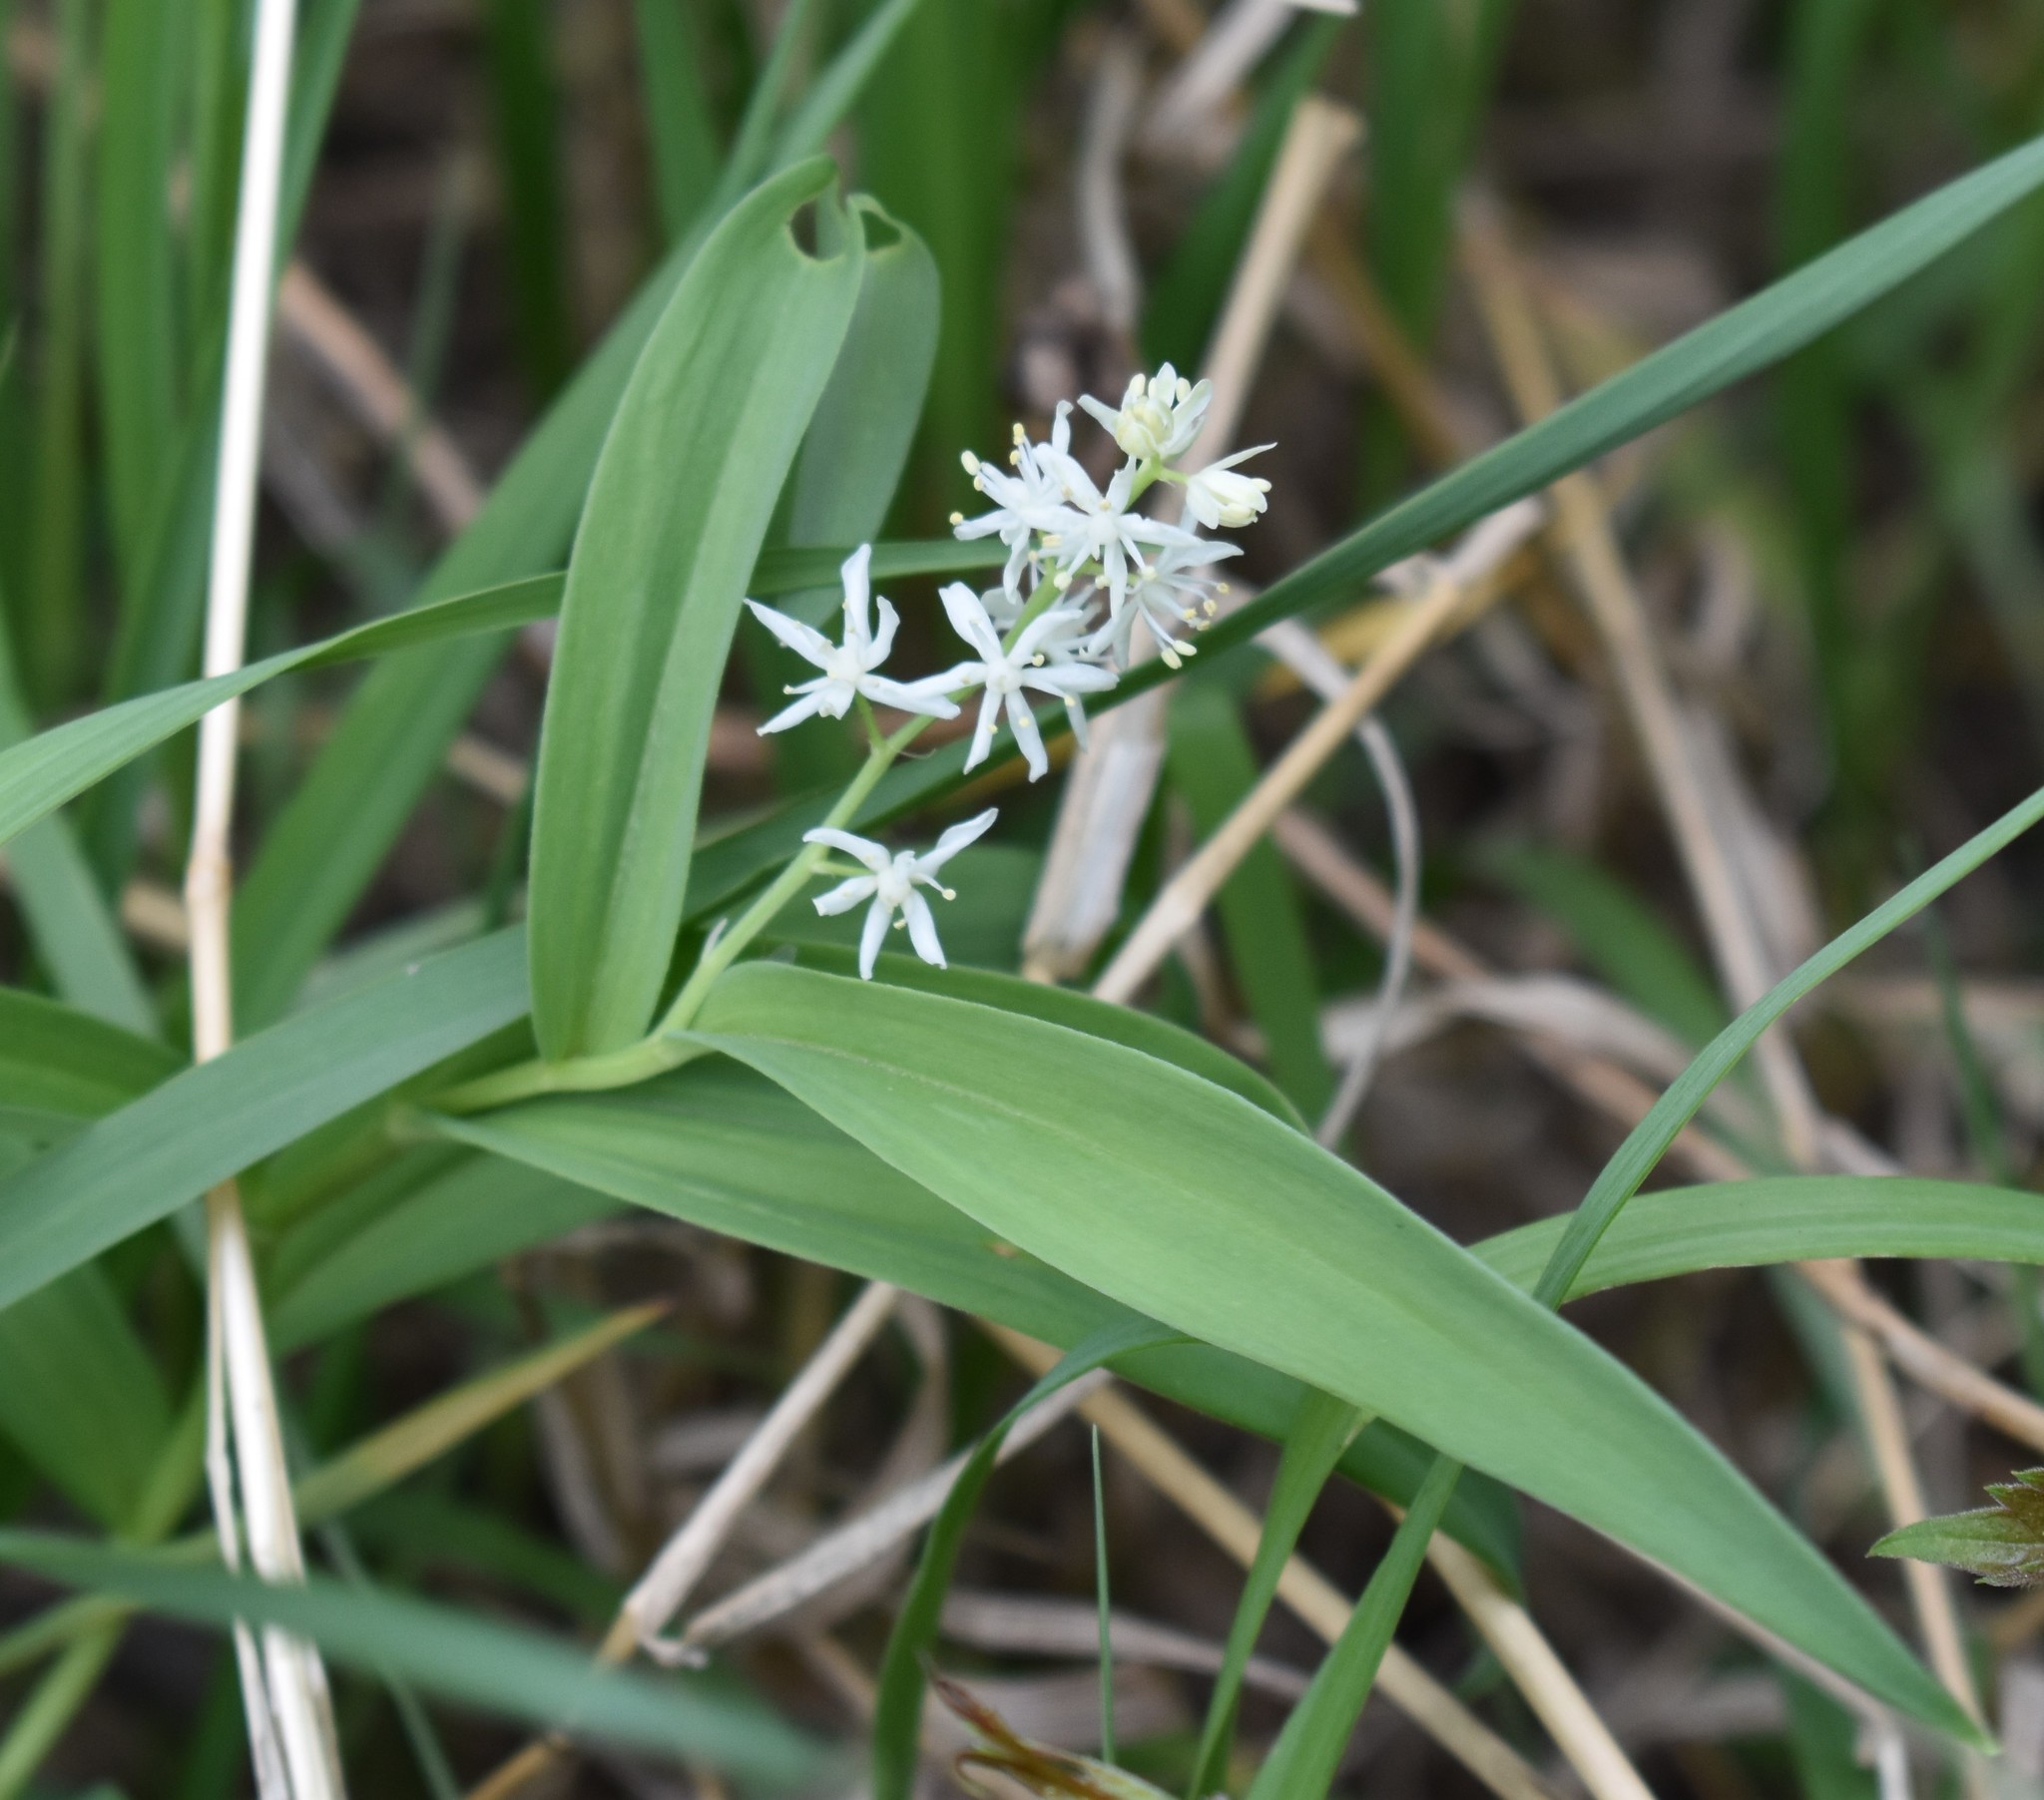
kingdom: Plantae
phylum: Tracheophyta
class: Liliopsida
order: Asparagales
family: Asparagaceae
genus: Maianthemum
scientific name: Maianthemum stellatum
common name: Little false solomon's seal
